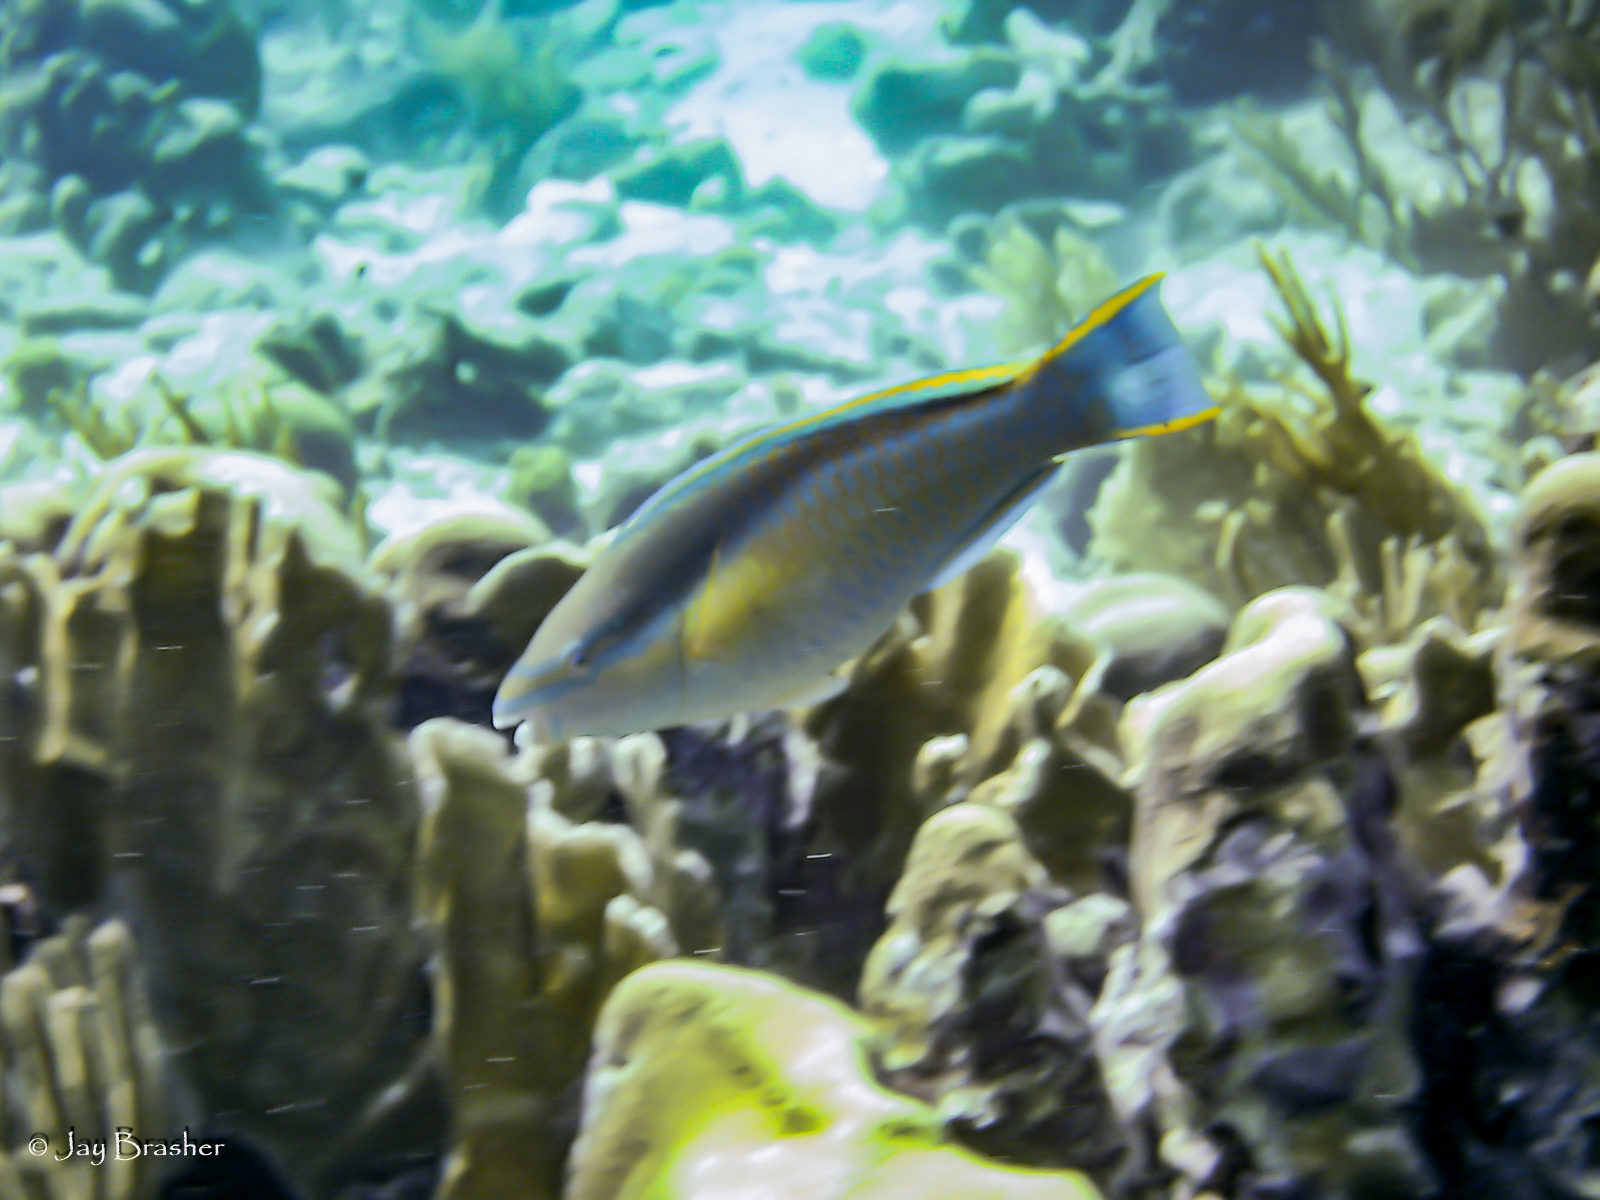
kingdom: Animalia
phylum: Chordata
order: Perciformes
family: Scaridae
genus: Scarus
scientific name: Scarus taeniopterus
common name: Princess parrotfish
